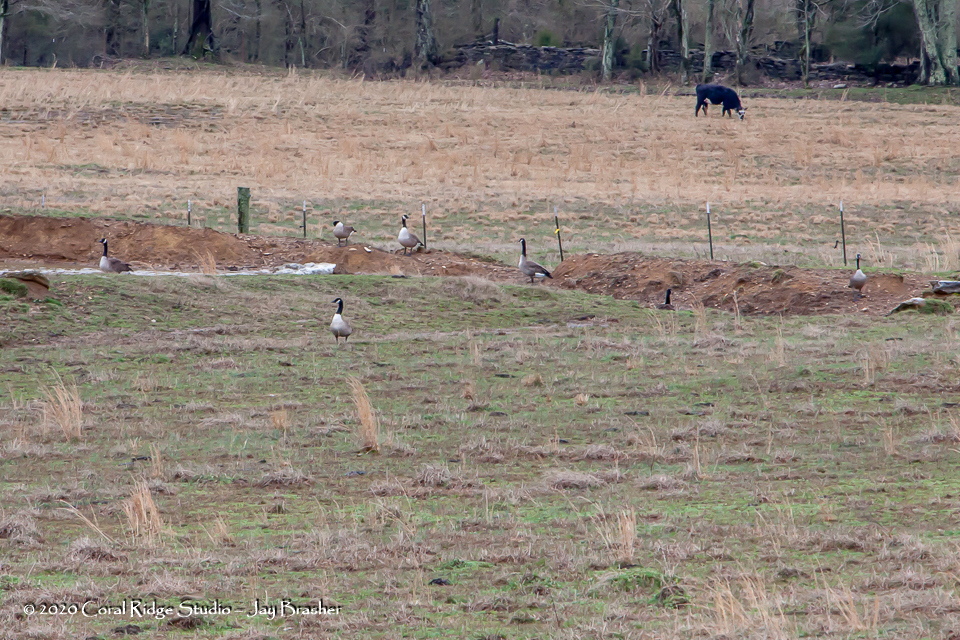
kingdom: Animalia
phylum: Chordata
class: Aves
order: Anseriformes
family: Anatidae
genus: Branta
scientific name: Branta canadensis
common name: Canada goose
